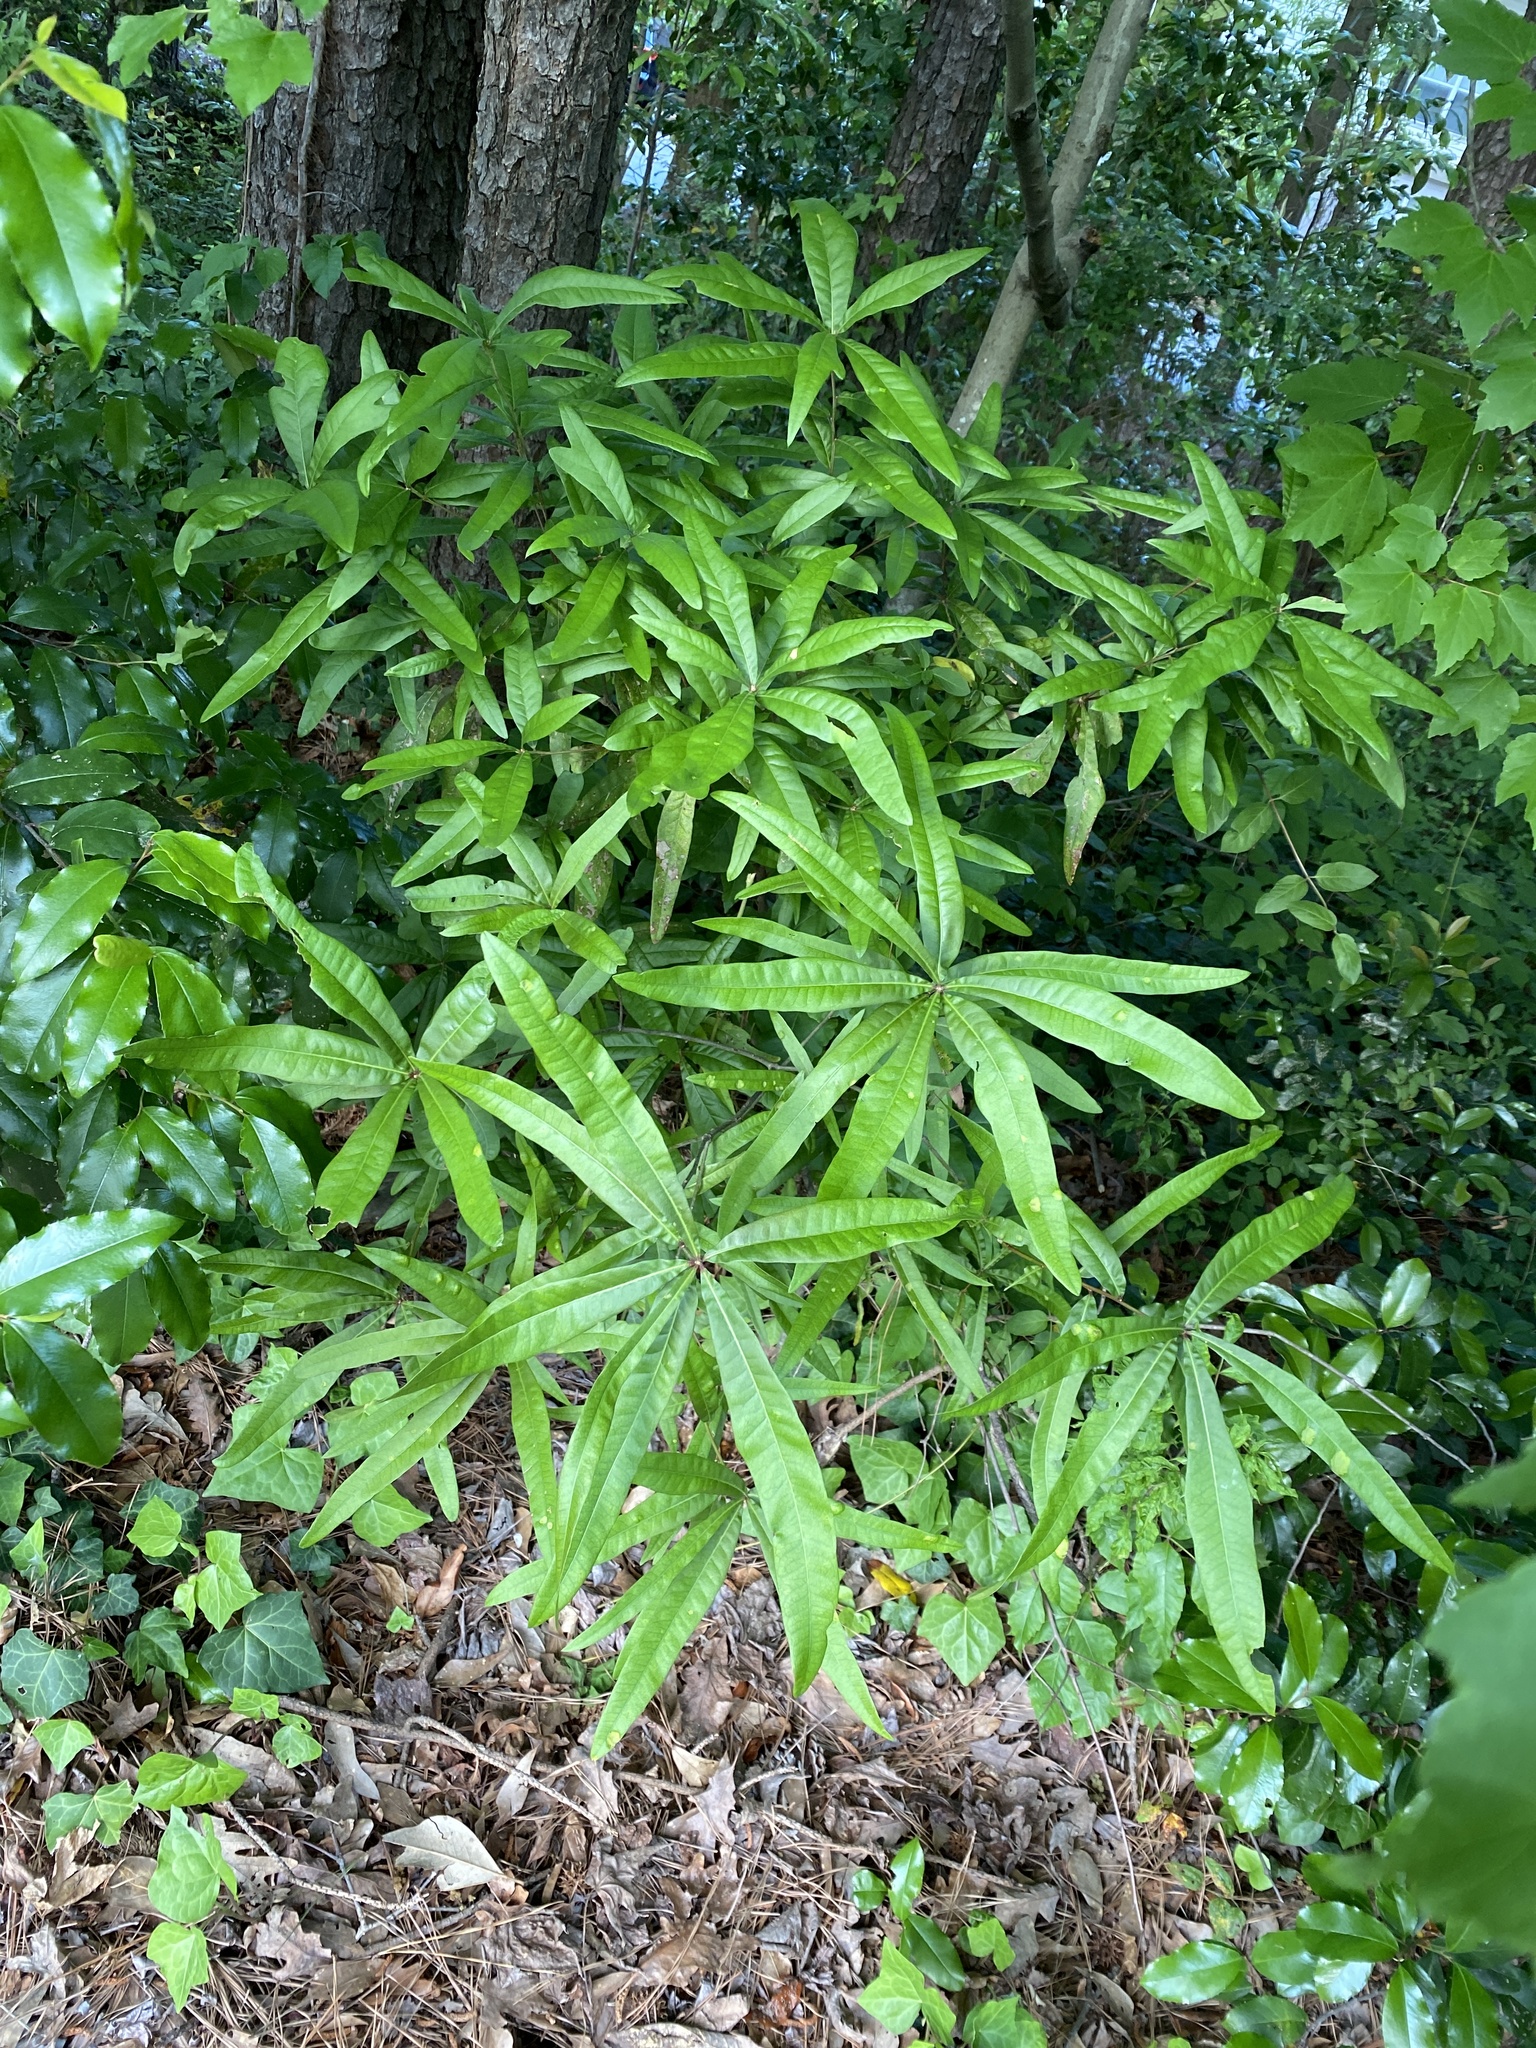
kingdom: Plantae
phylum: Tracheophyta
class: Magnoliopsida
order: Fagales
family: Fagaceae
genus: Quercus
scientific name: Quercus phellos
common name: Willow oak
